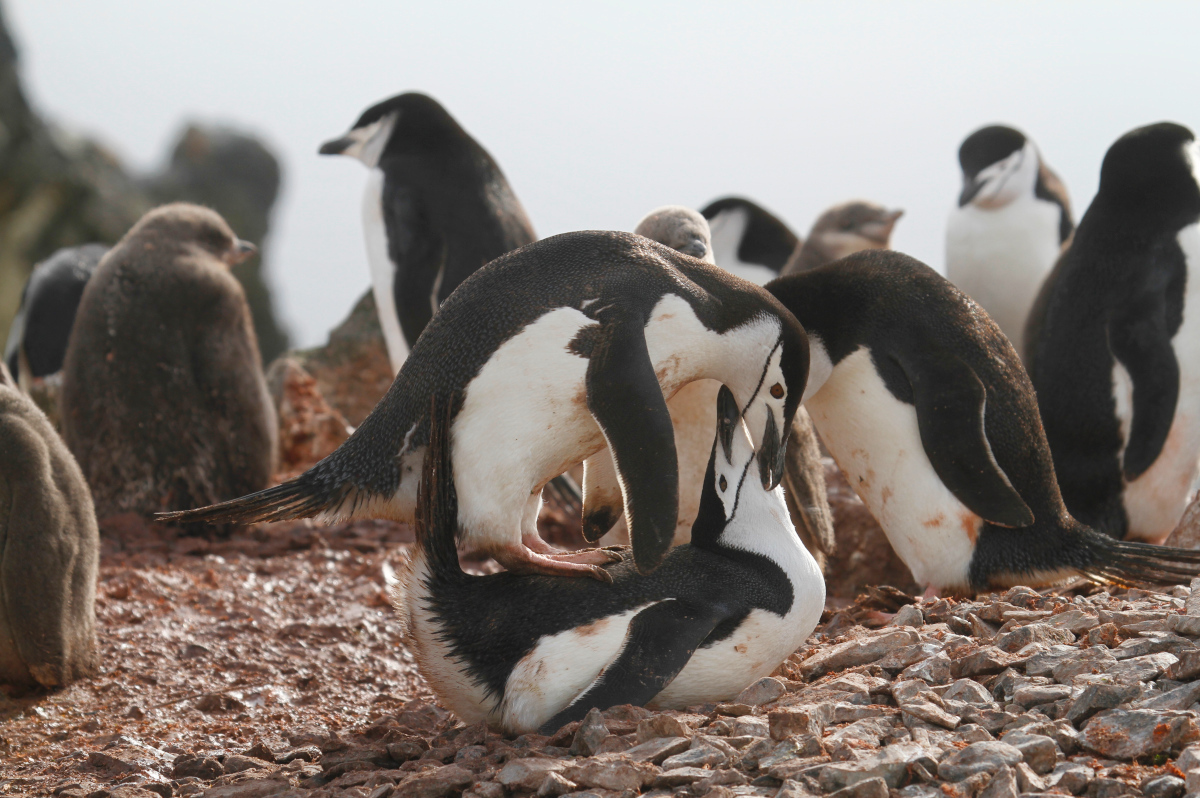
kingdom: Animalia
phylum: Chordata
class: Aves
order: Sphenisciformes
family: Spheniscidae
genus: Pygoscelis
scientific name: Pygoscelis antarcticus
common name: Chinstrap penguin
